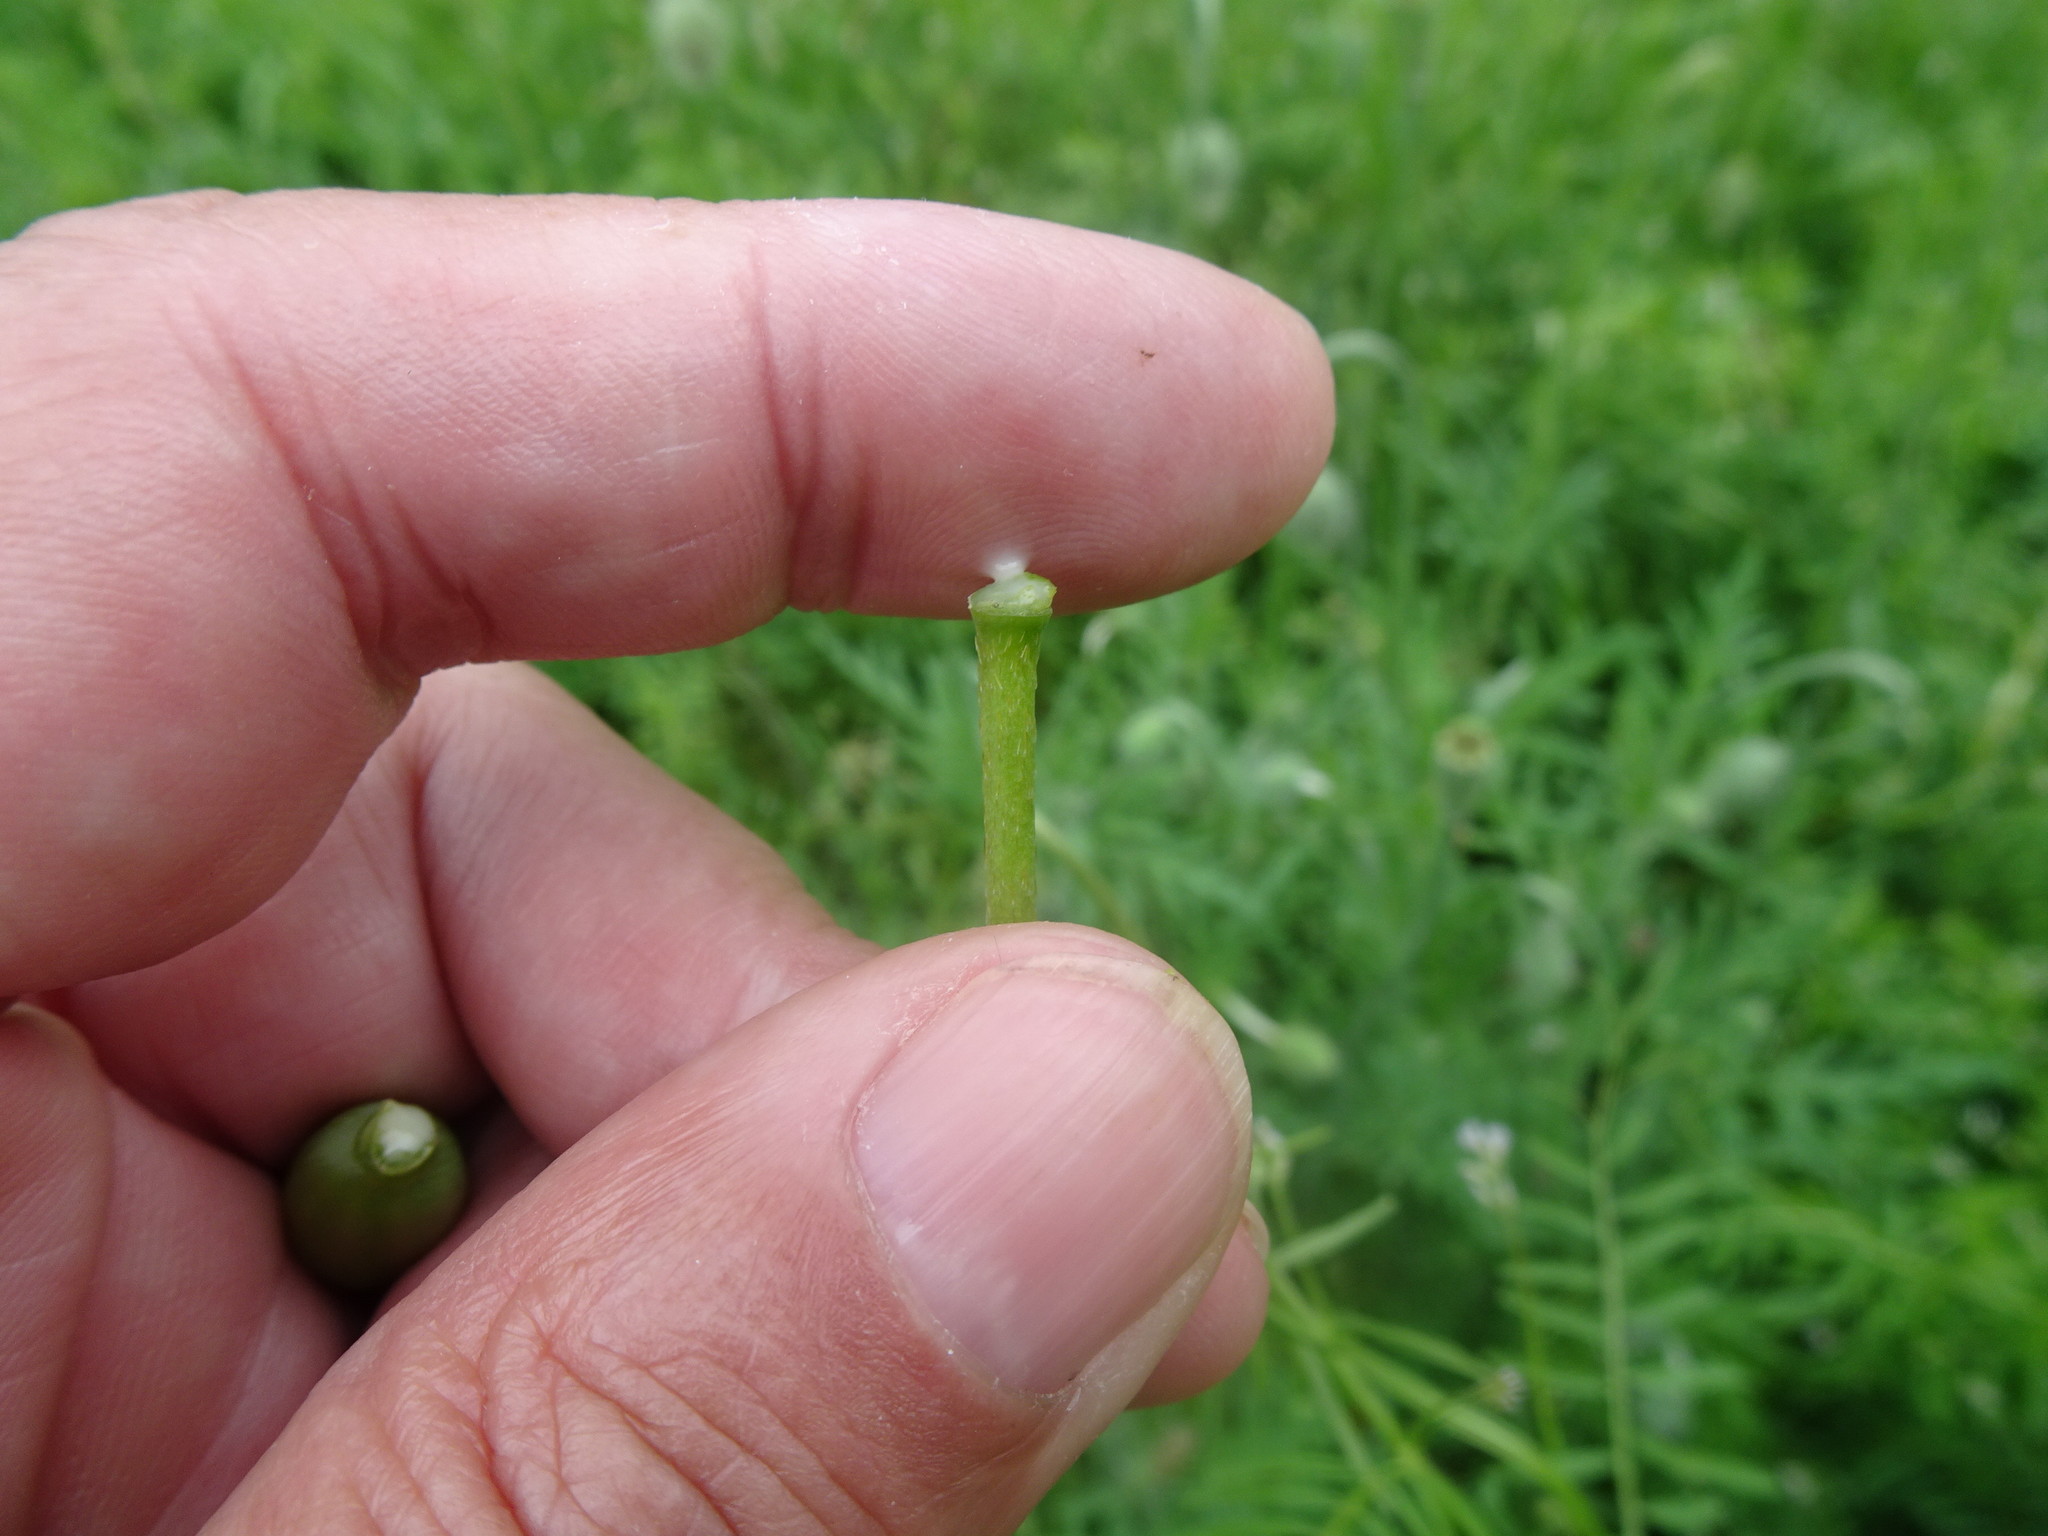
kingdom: Plantae
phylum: Tracheophyta
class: Magnoliopsida
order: Ranunculales
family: Papaveraceae
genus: Papaver
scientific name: Papaver dubium
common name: Long-headed poppy
